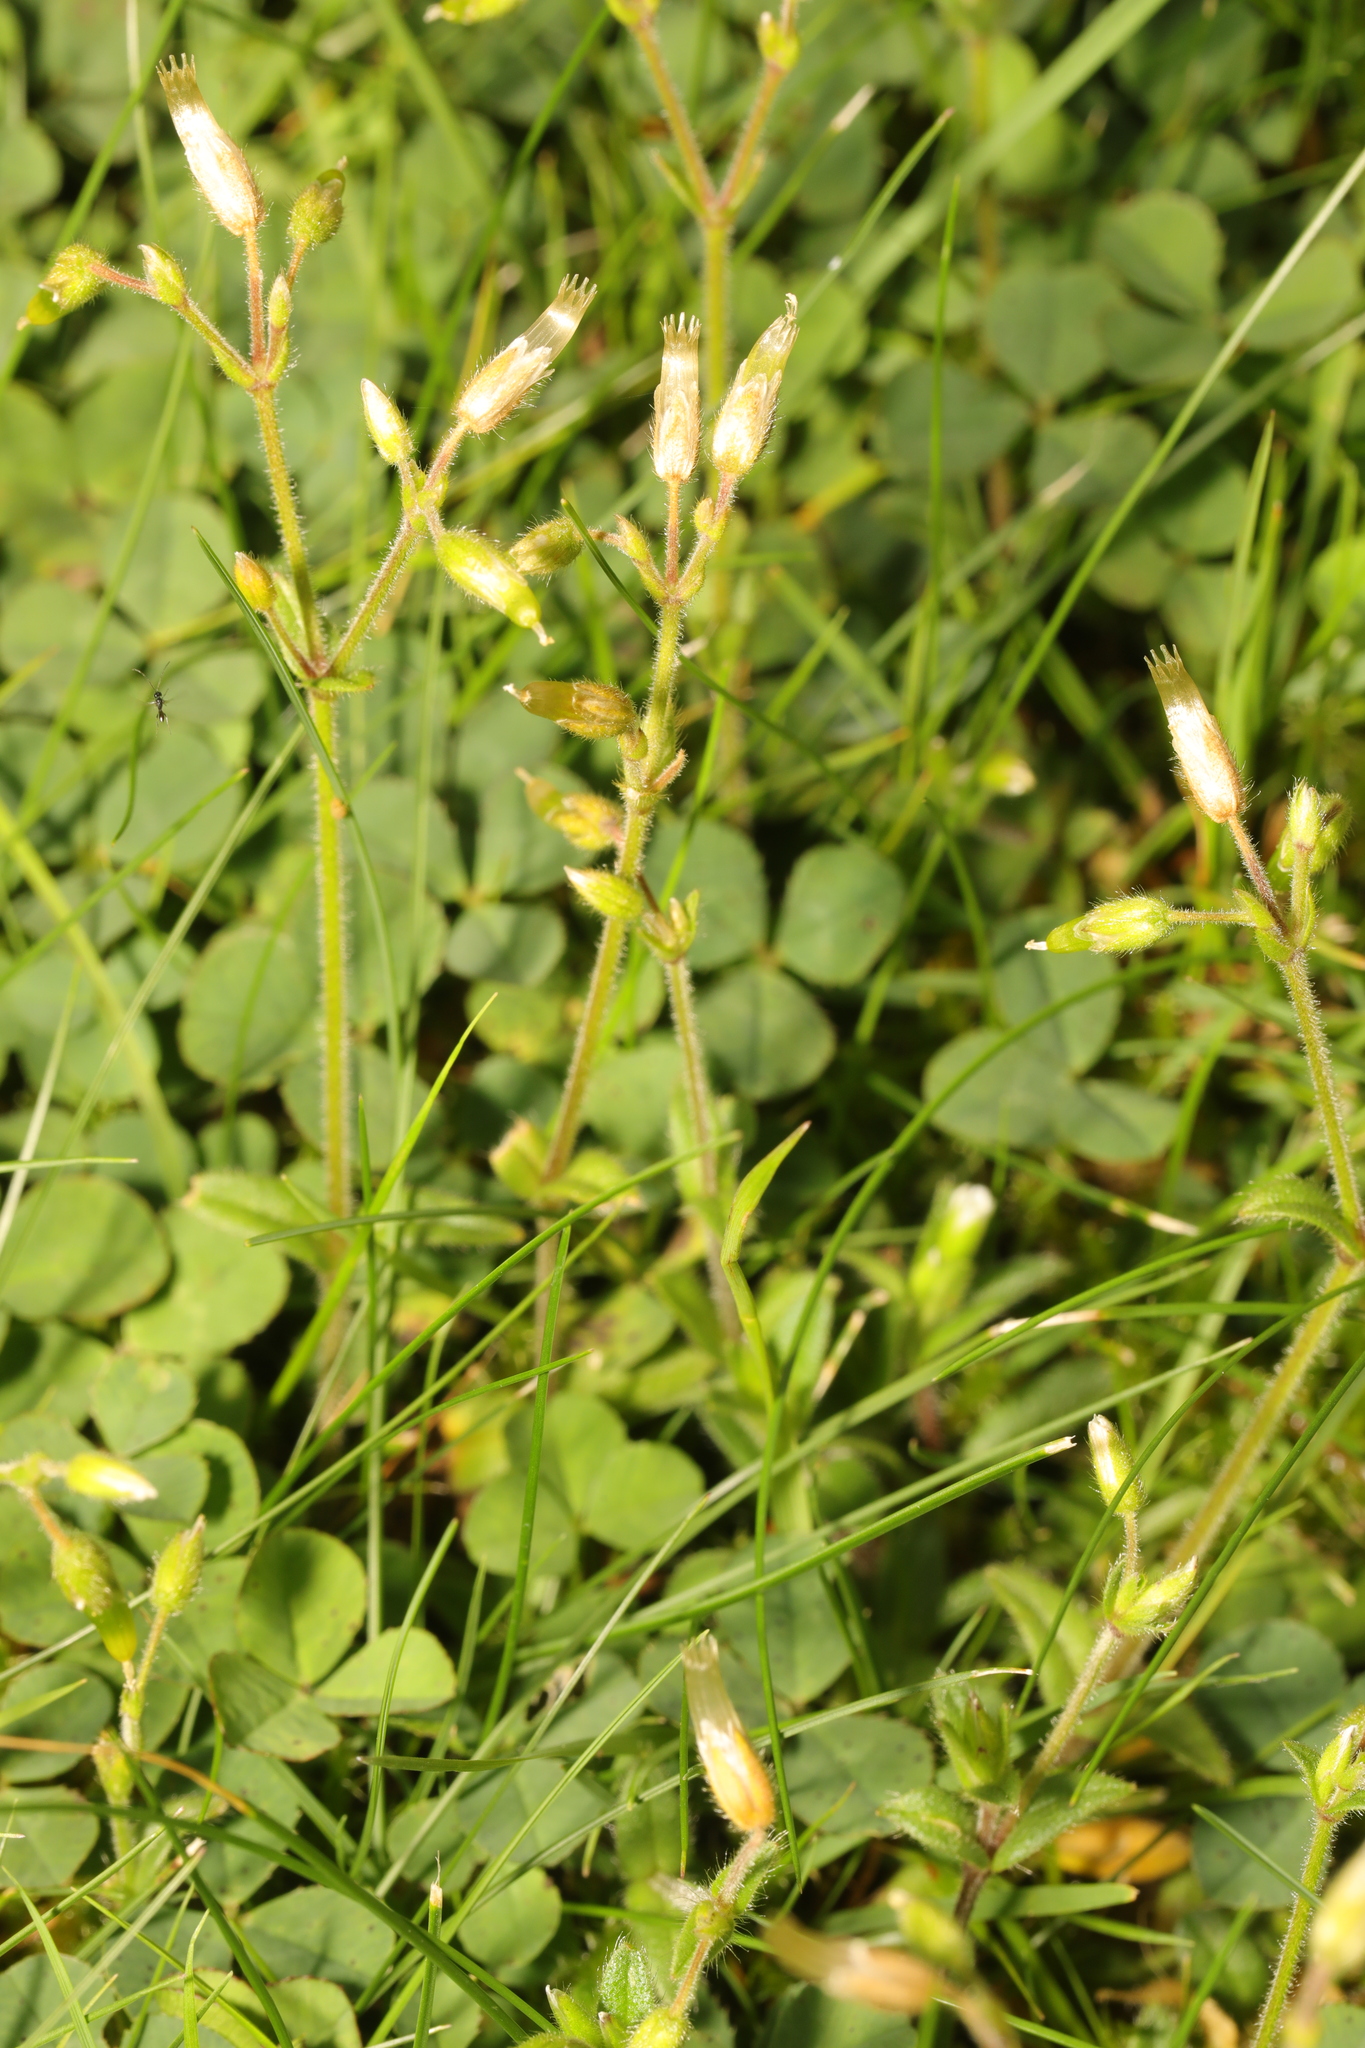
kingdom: Plantae
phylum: Tracheophyta
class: Magnoliopsida
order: Caryophyllales
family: Caryophyllaceae
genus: Cerastium
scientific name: Cerastium fontanum
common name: Common mouse-ear
